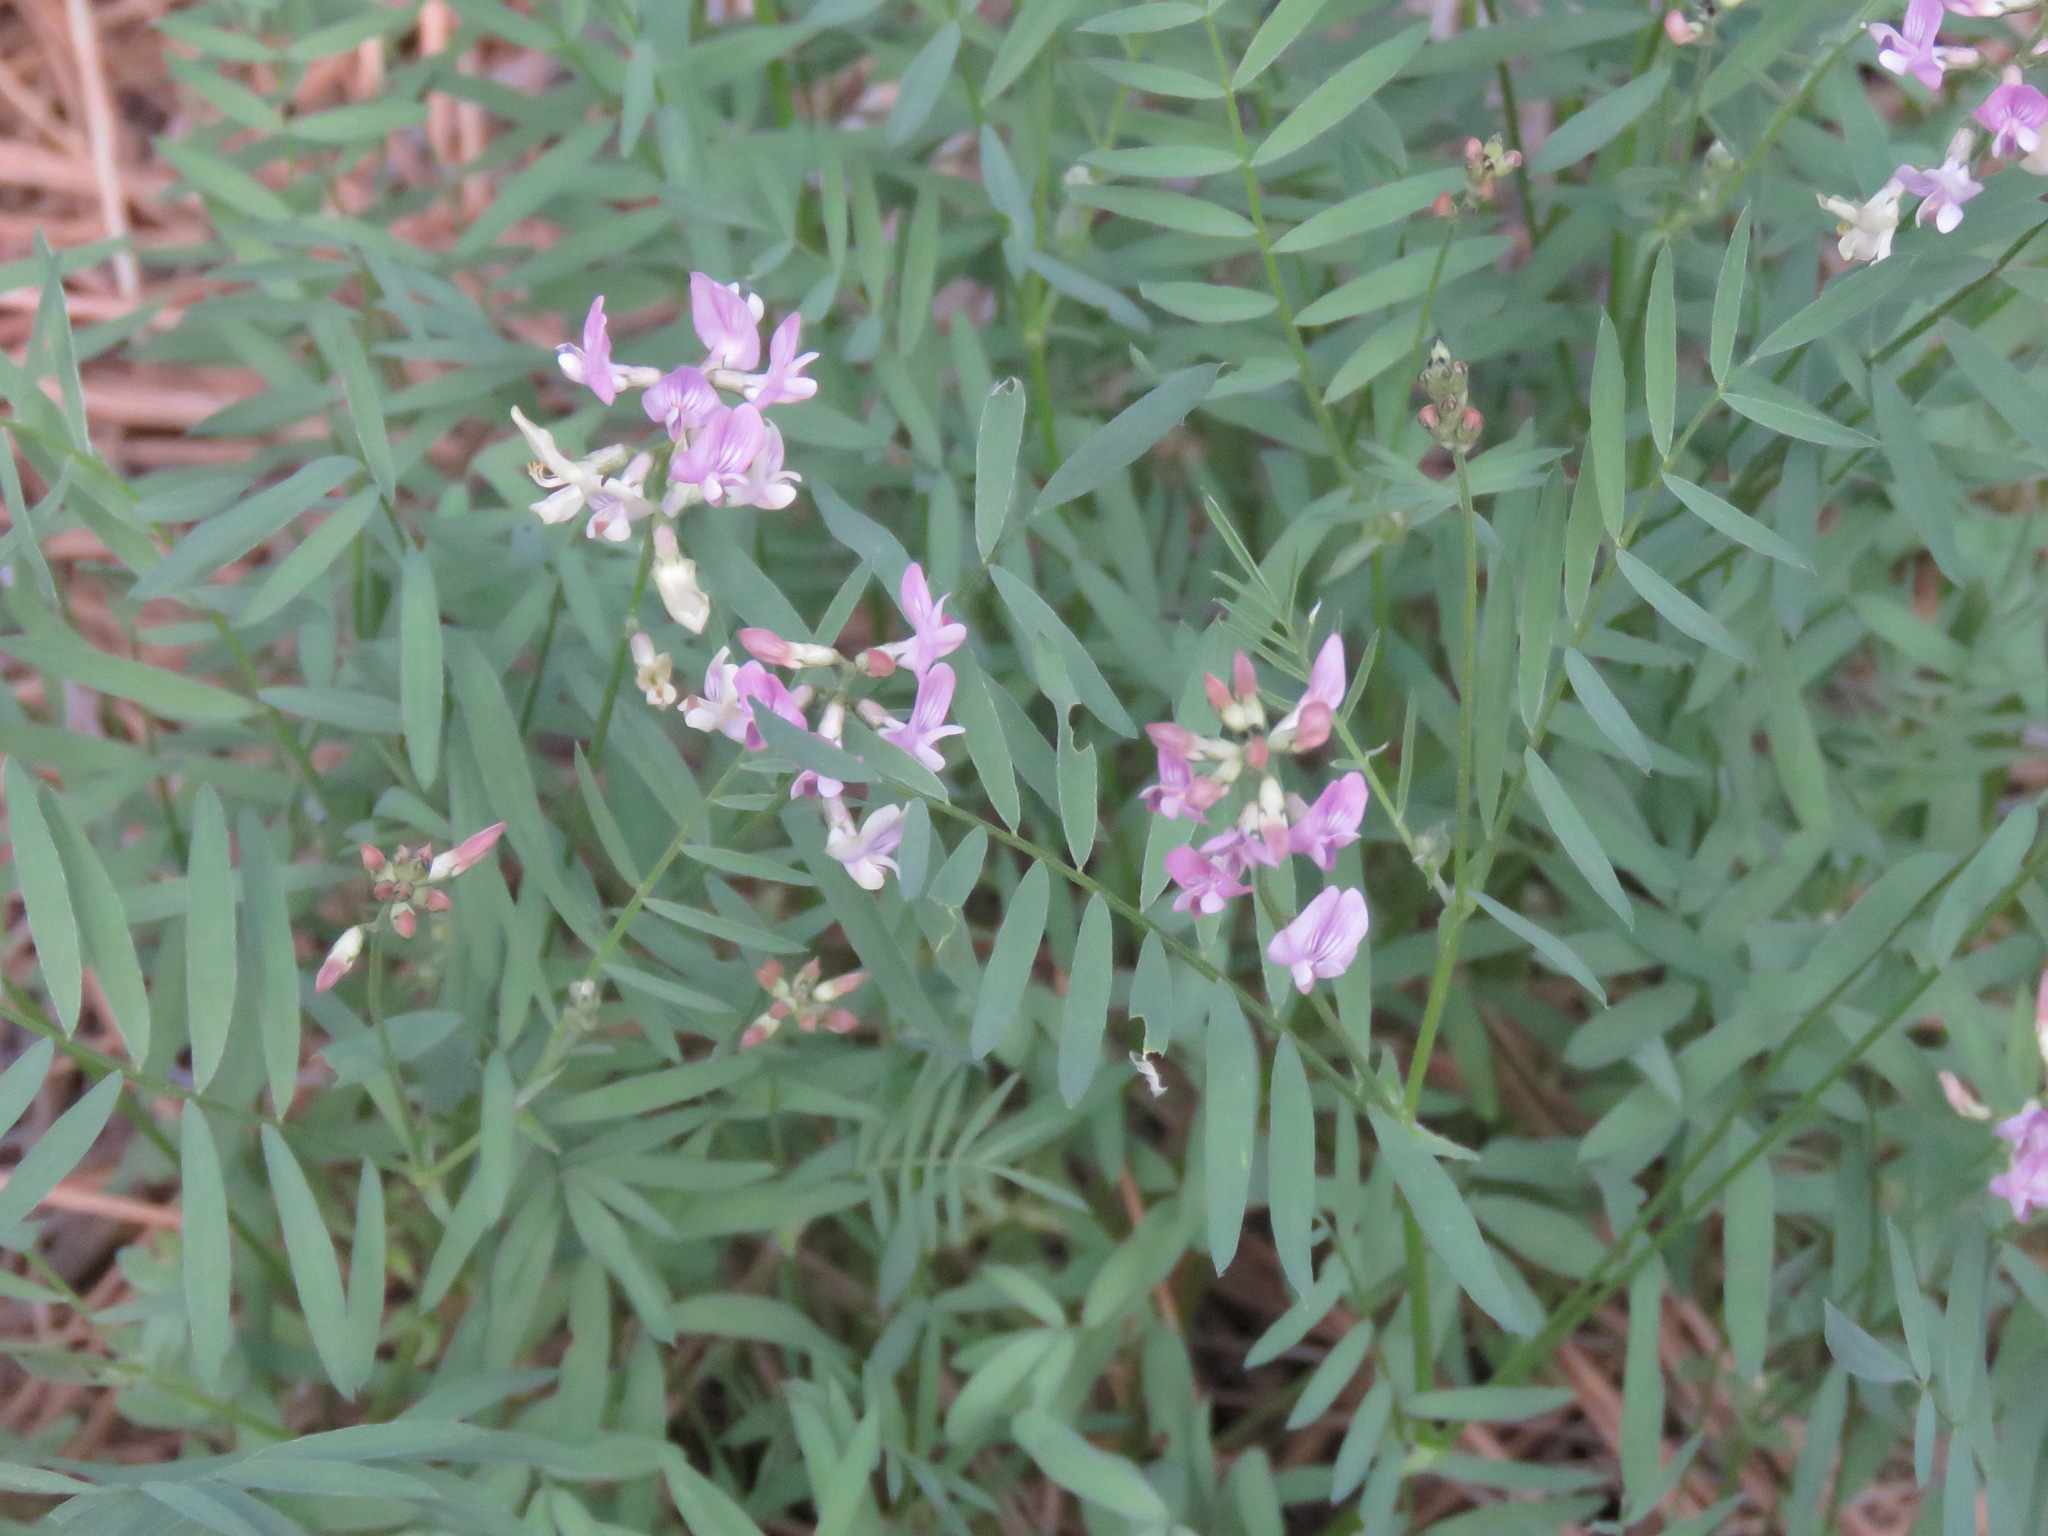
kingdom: Plantae
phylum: Tracheophyta
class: Magnoliopsida
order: Fabales
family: Fabaceae
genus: Astragalus
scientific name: Astragalus miser
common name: Timber milkvetch
